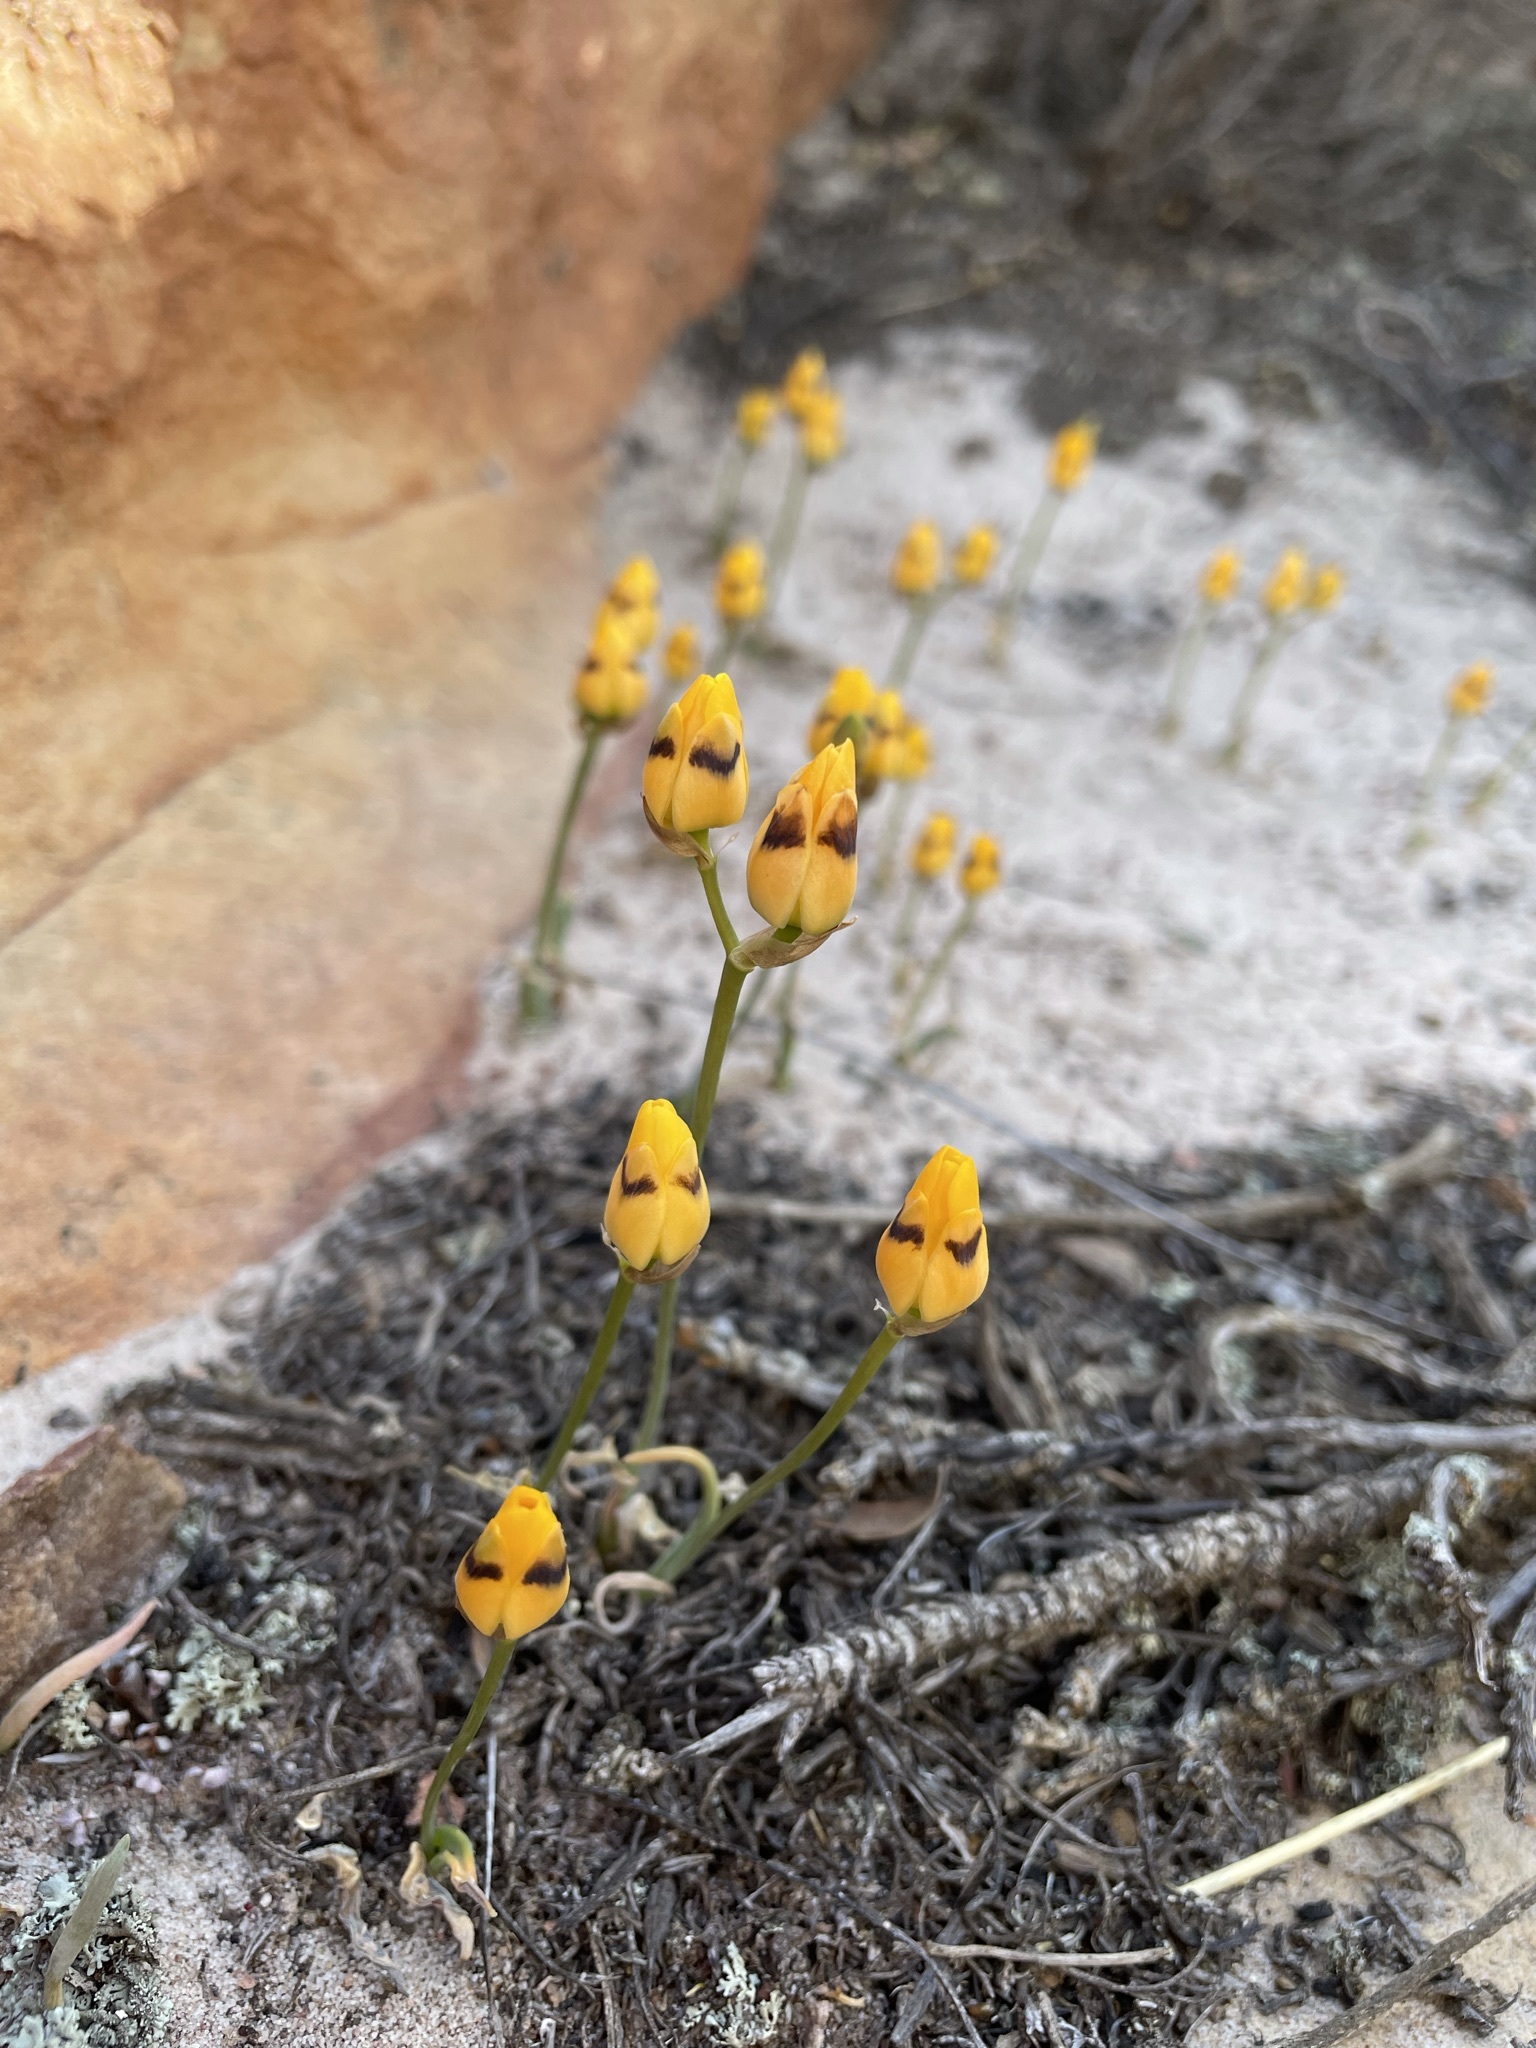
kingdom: Plantae
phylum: Tracheophyta
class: Liliopsida
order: Asparagales
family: Asparagaceae
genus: Ornithogalum
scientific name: Ornithogalum maculatum
